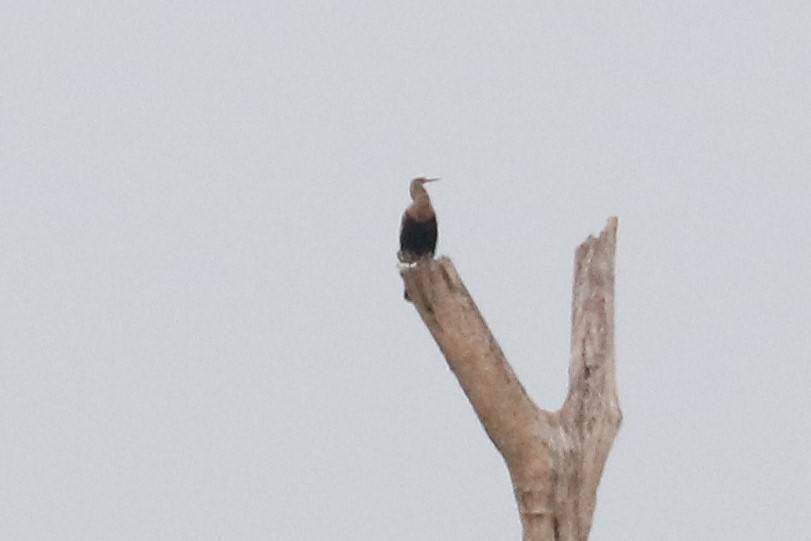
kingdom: Animalia
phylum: Chordata
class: Aves
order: Suliformes
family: Anhingidae
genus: Anhinga
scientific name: Anhinga anhinga
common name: Anhinga
